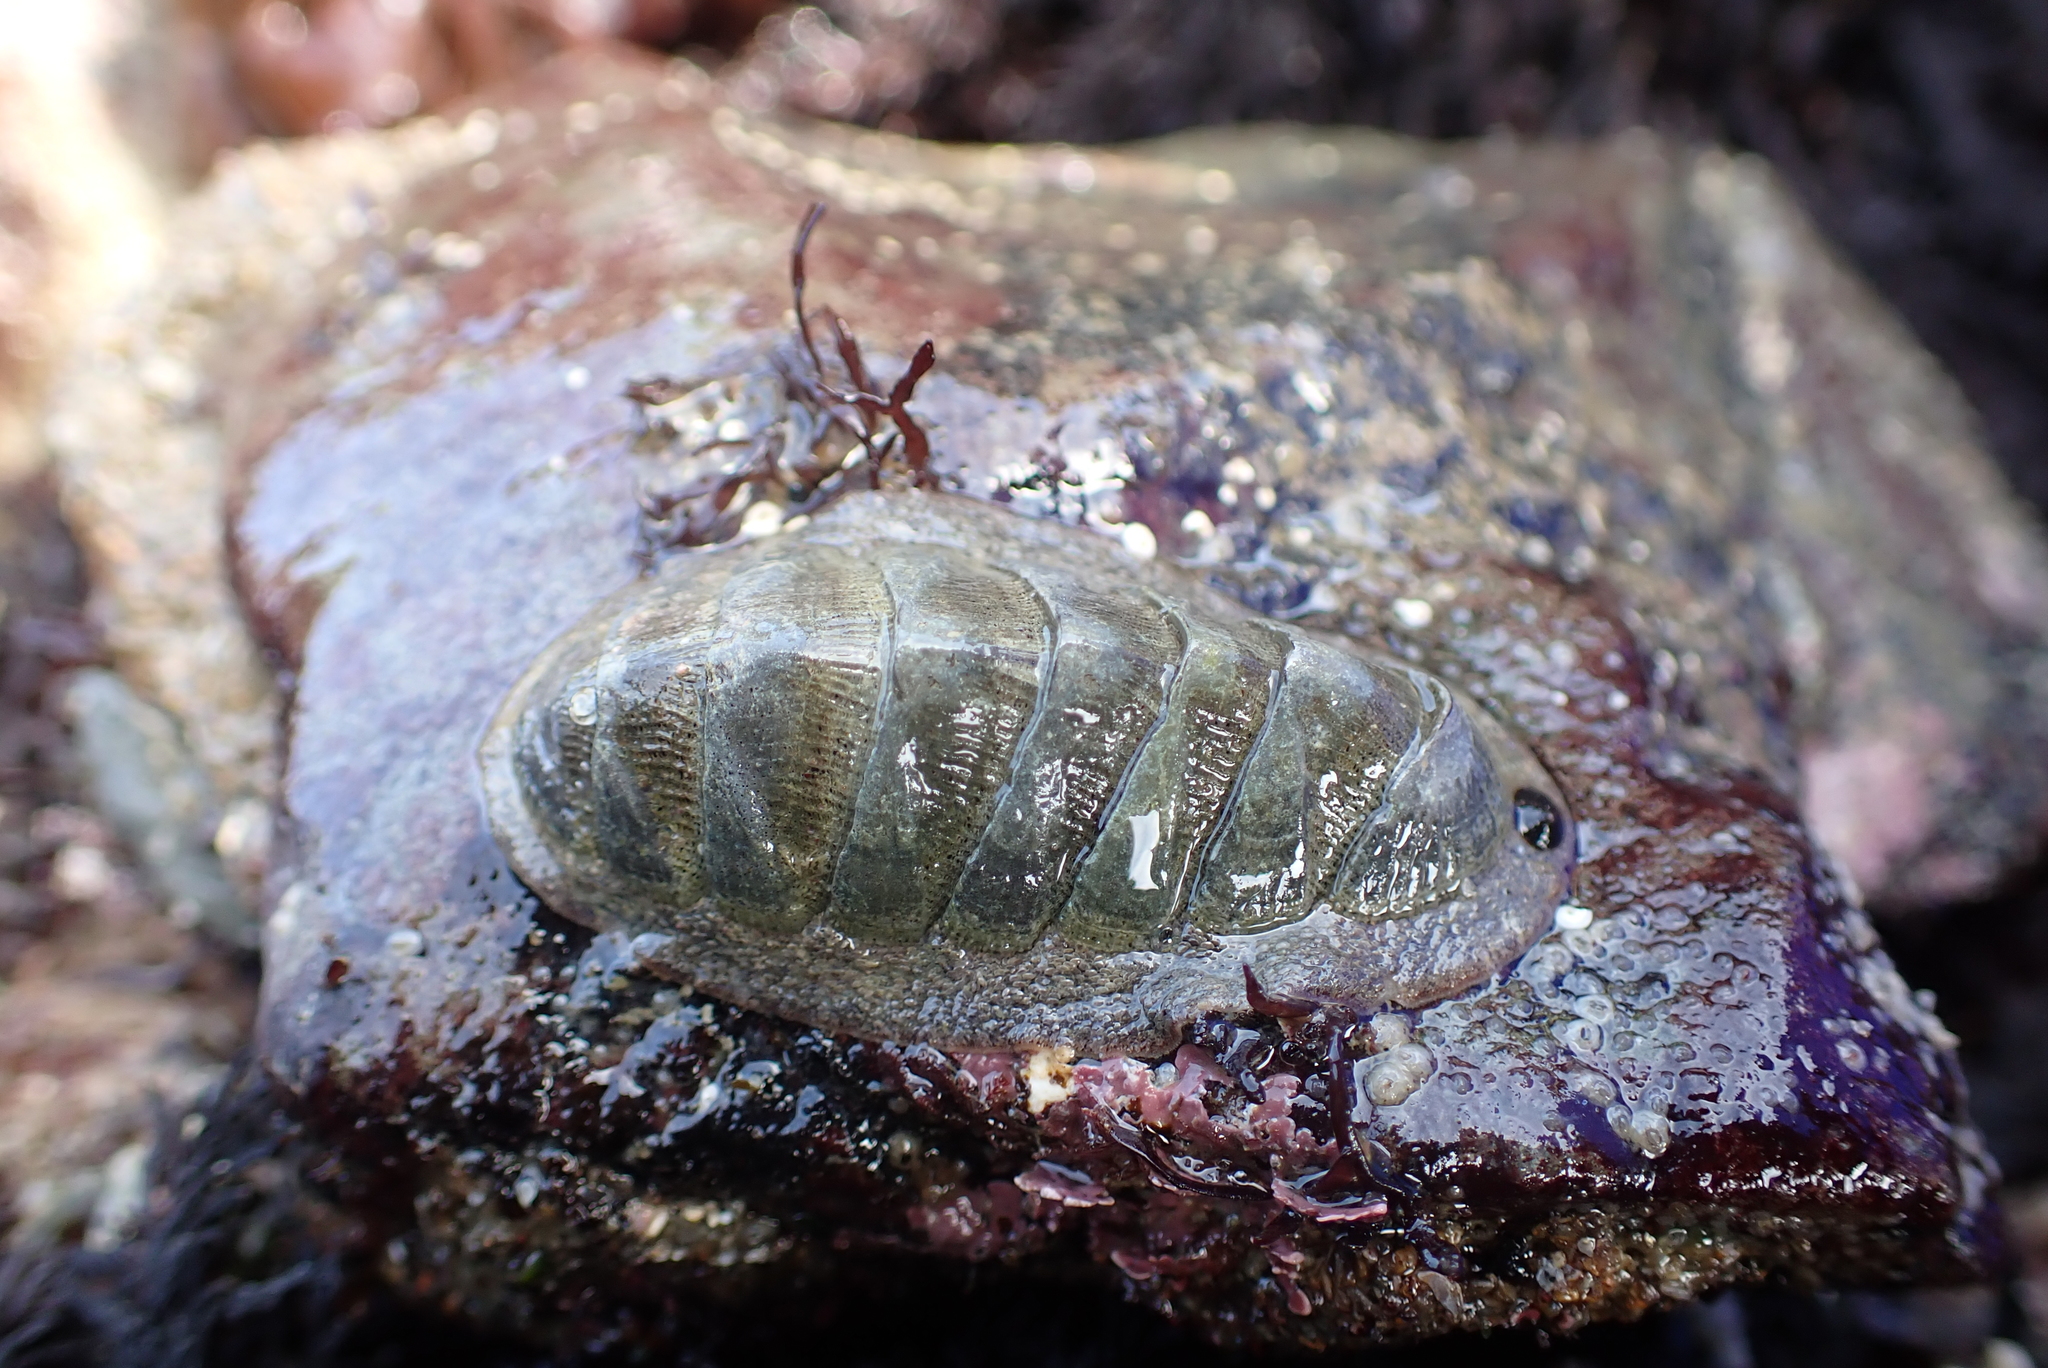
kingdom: Animalia
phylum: Mollusca
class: Polyplacophora
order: Chitonida
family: Ischnochitonidae
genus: Lepidozona
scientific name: Lepidozona cooperi
